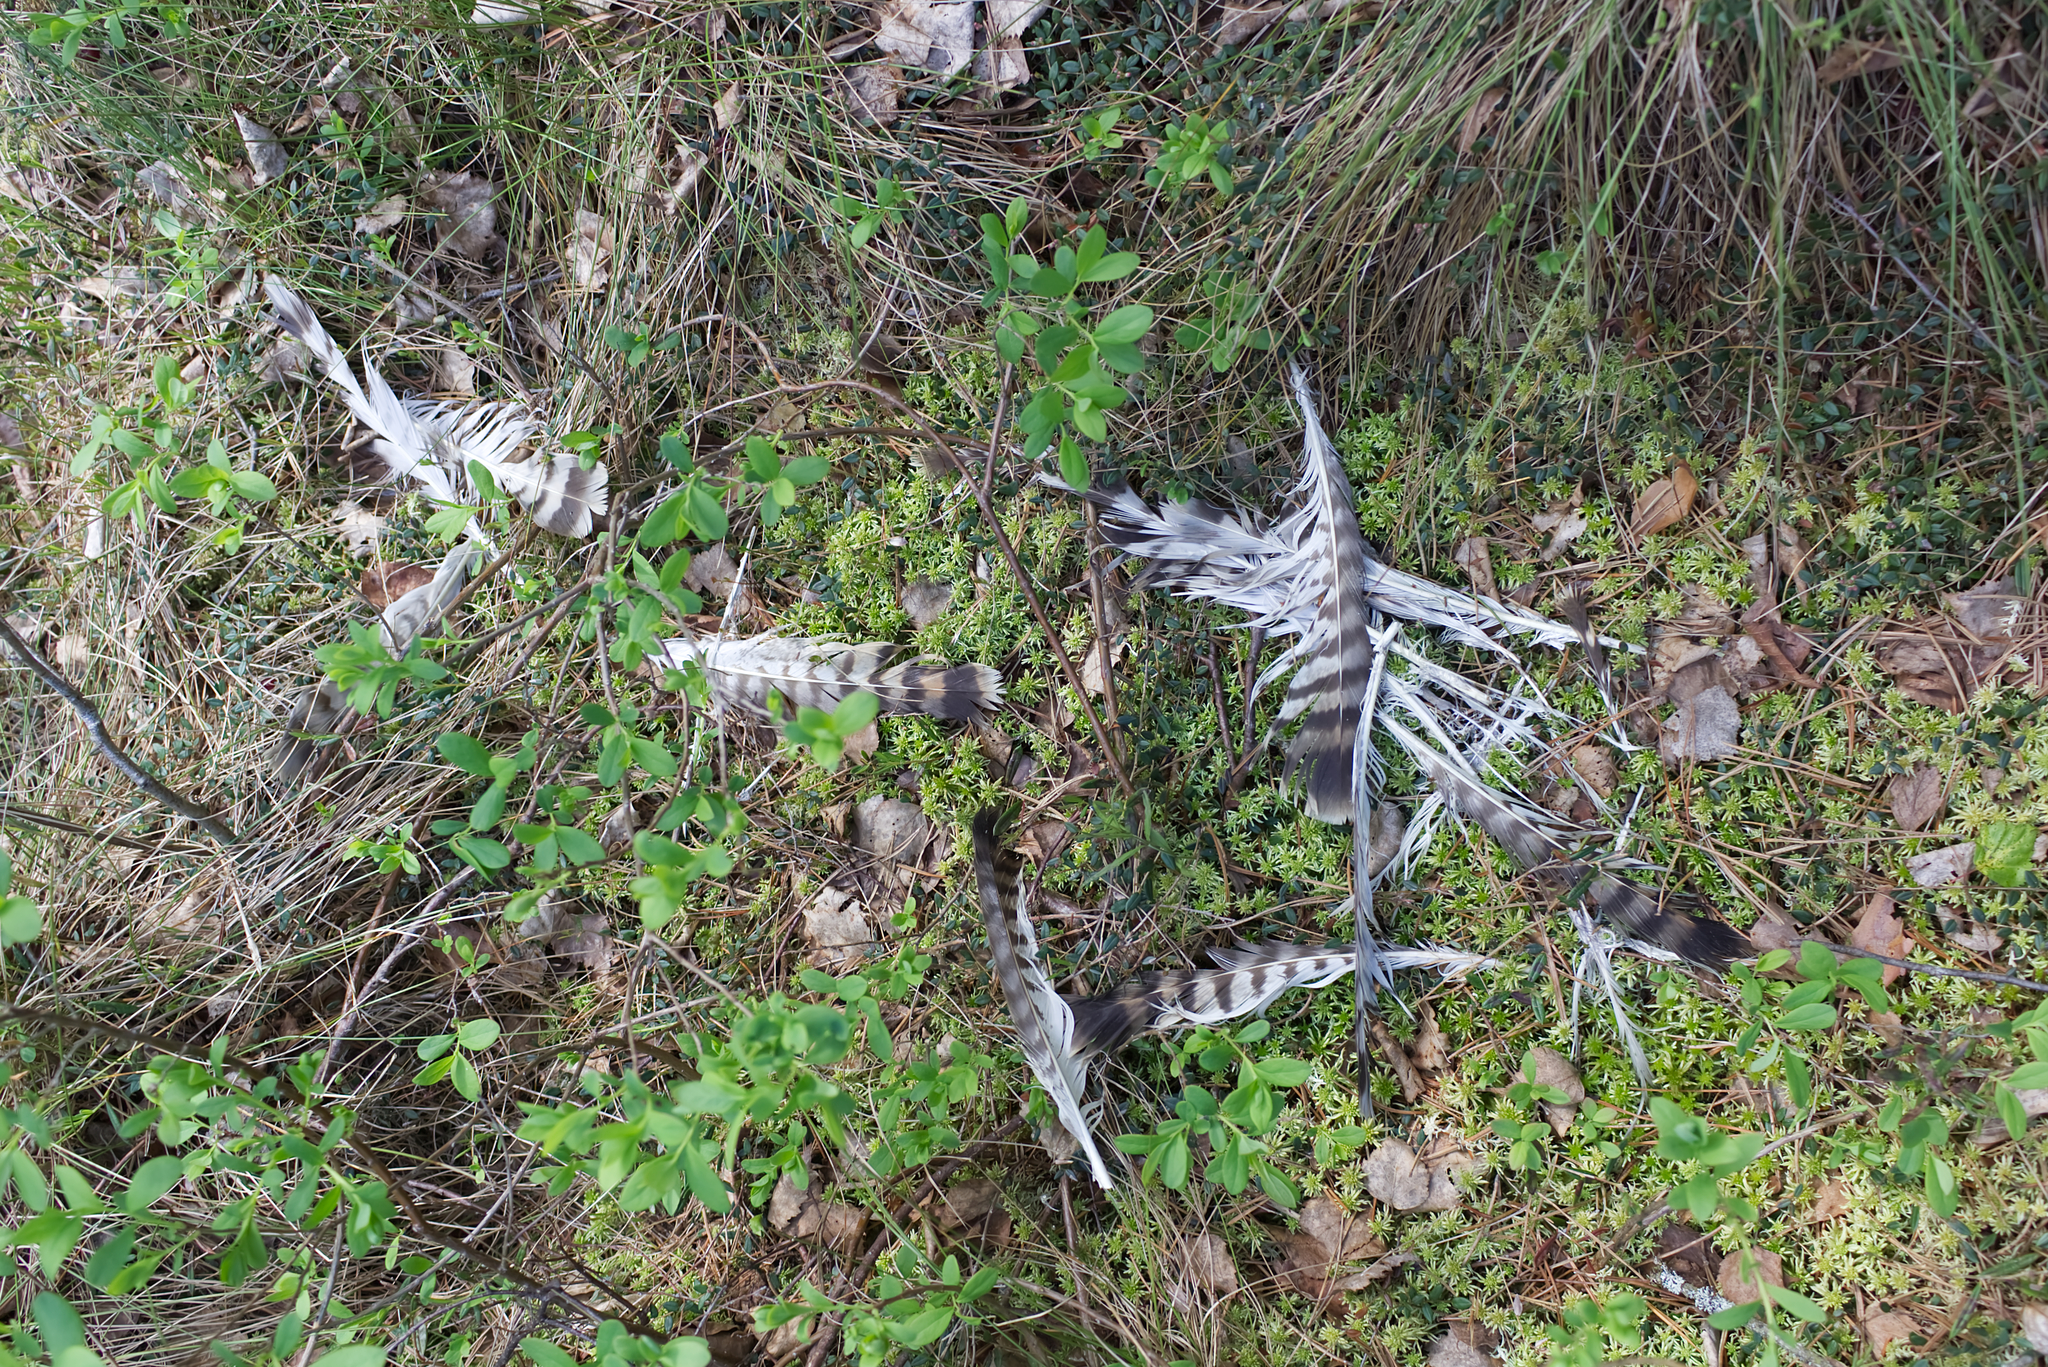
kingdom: Animalia
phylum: Chordata
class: Aves
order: Accipitriformes
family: Accipitridae
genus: Buteo
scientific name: Buteo buteo
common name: Common buzzard
